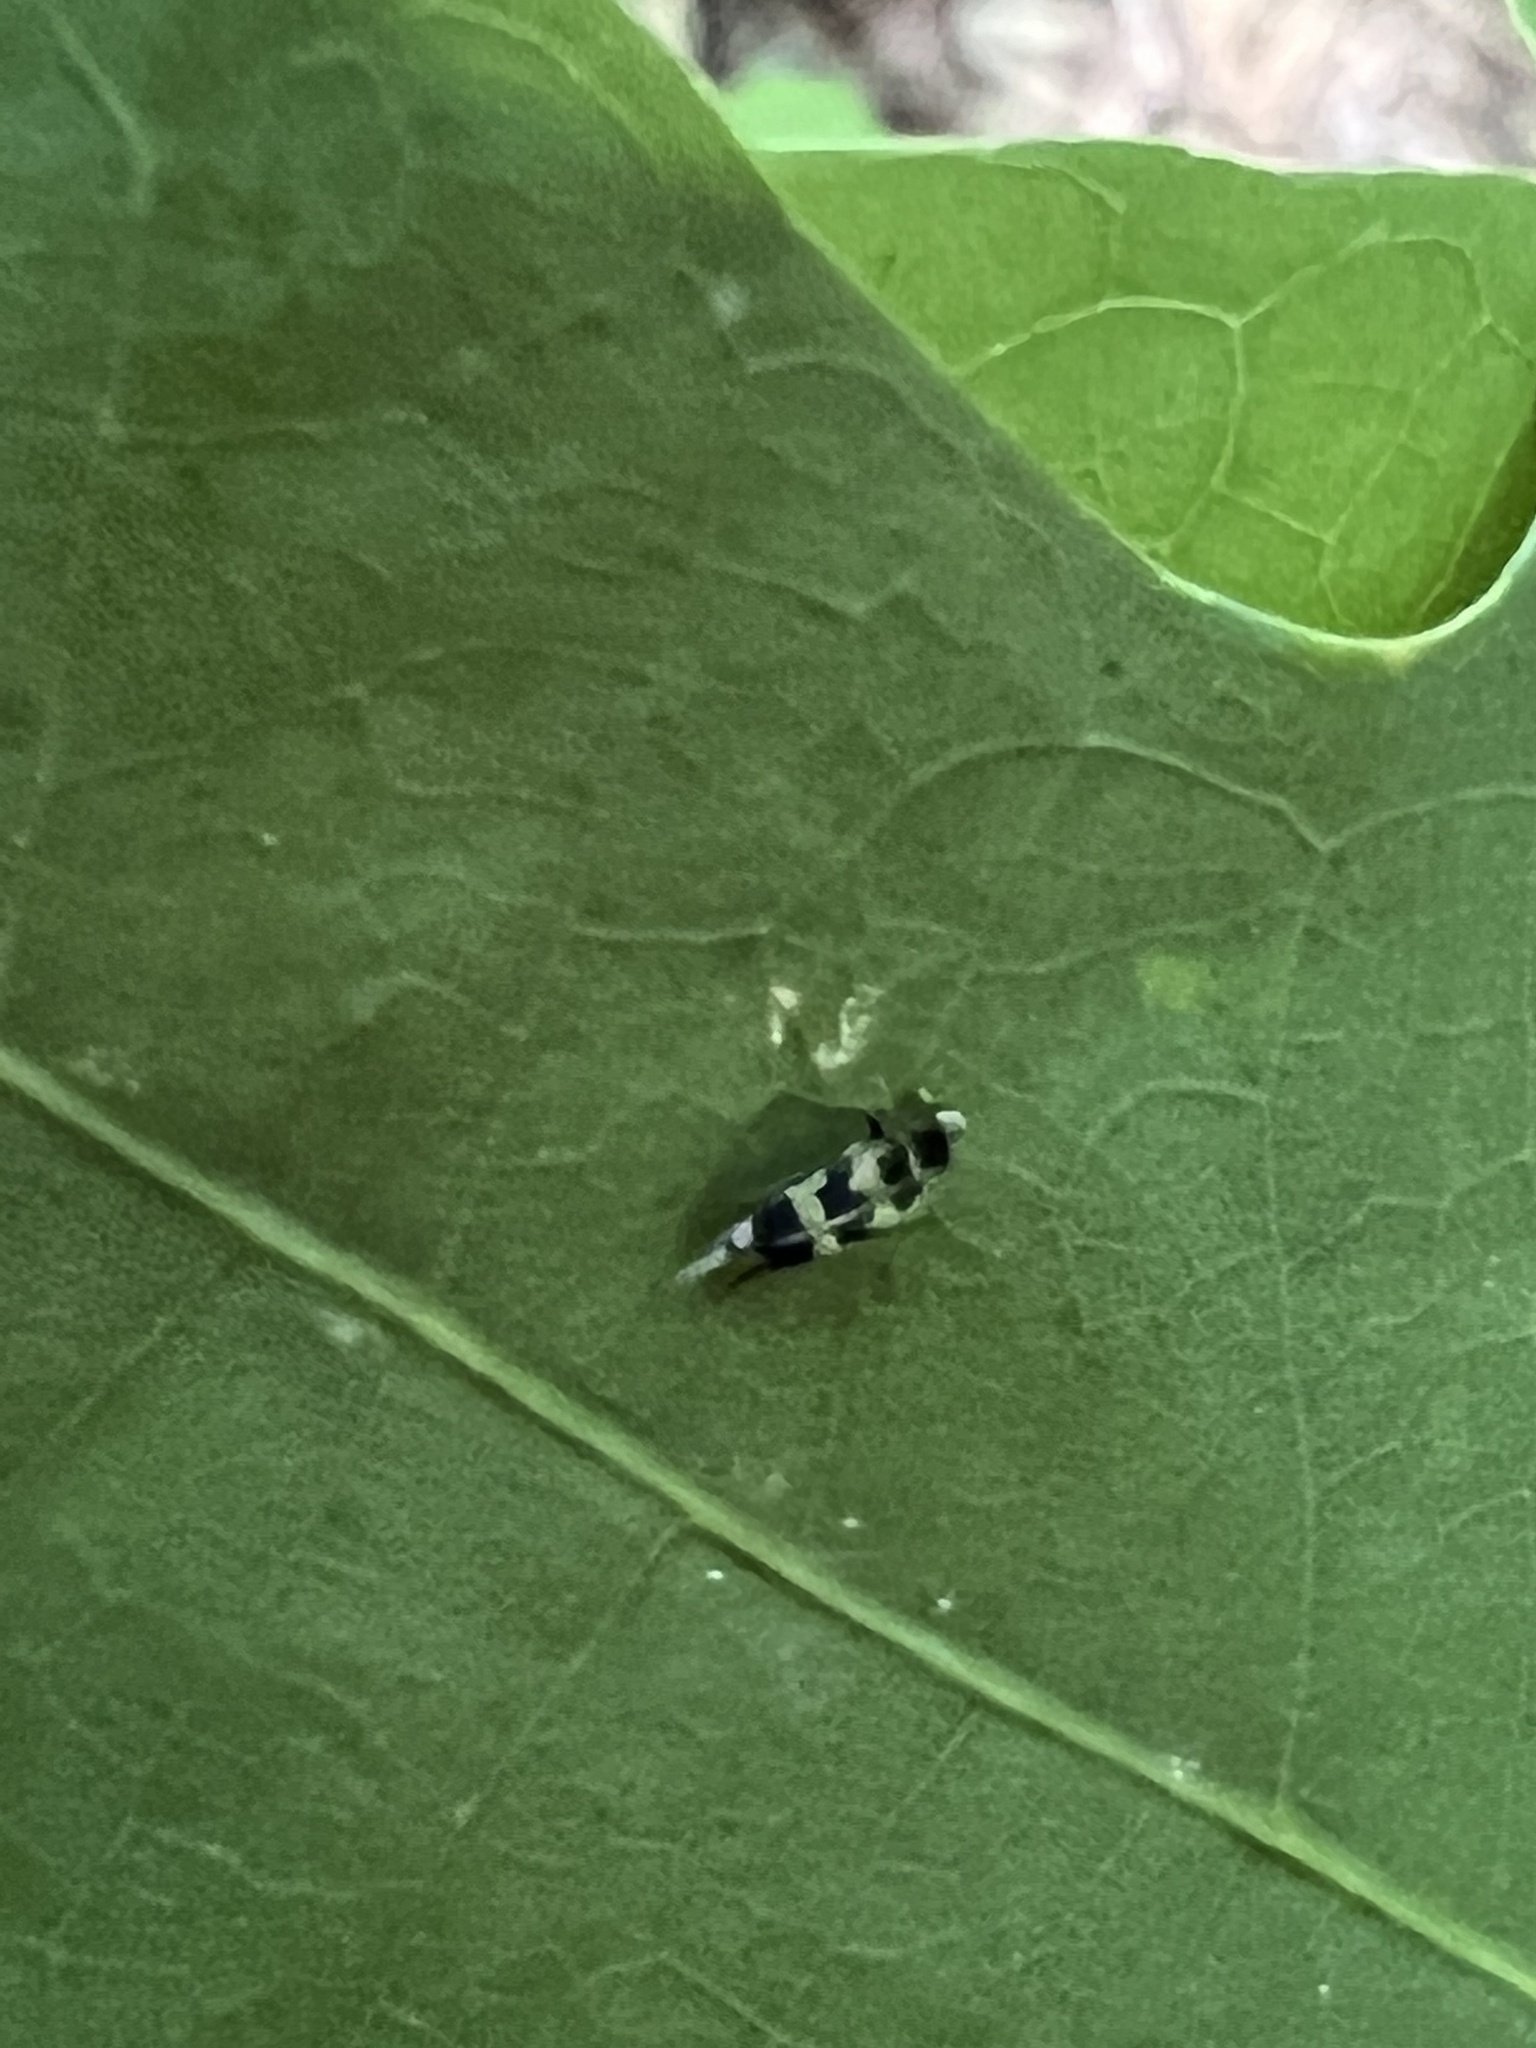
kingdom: Animalia
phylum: Arthropoda
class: Insecta
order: Coleoptera
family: Mordellidae
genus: Falsomordellistena
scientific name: Falsomordellistena pubescens
